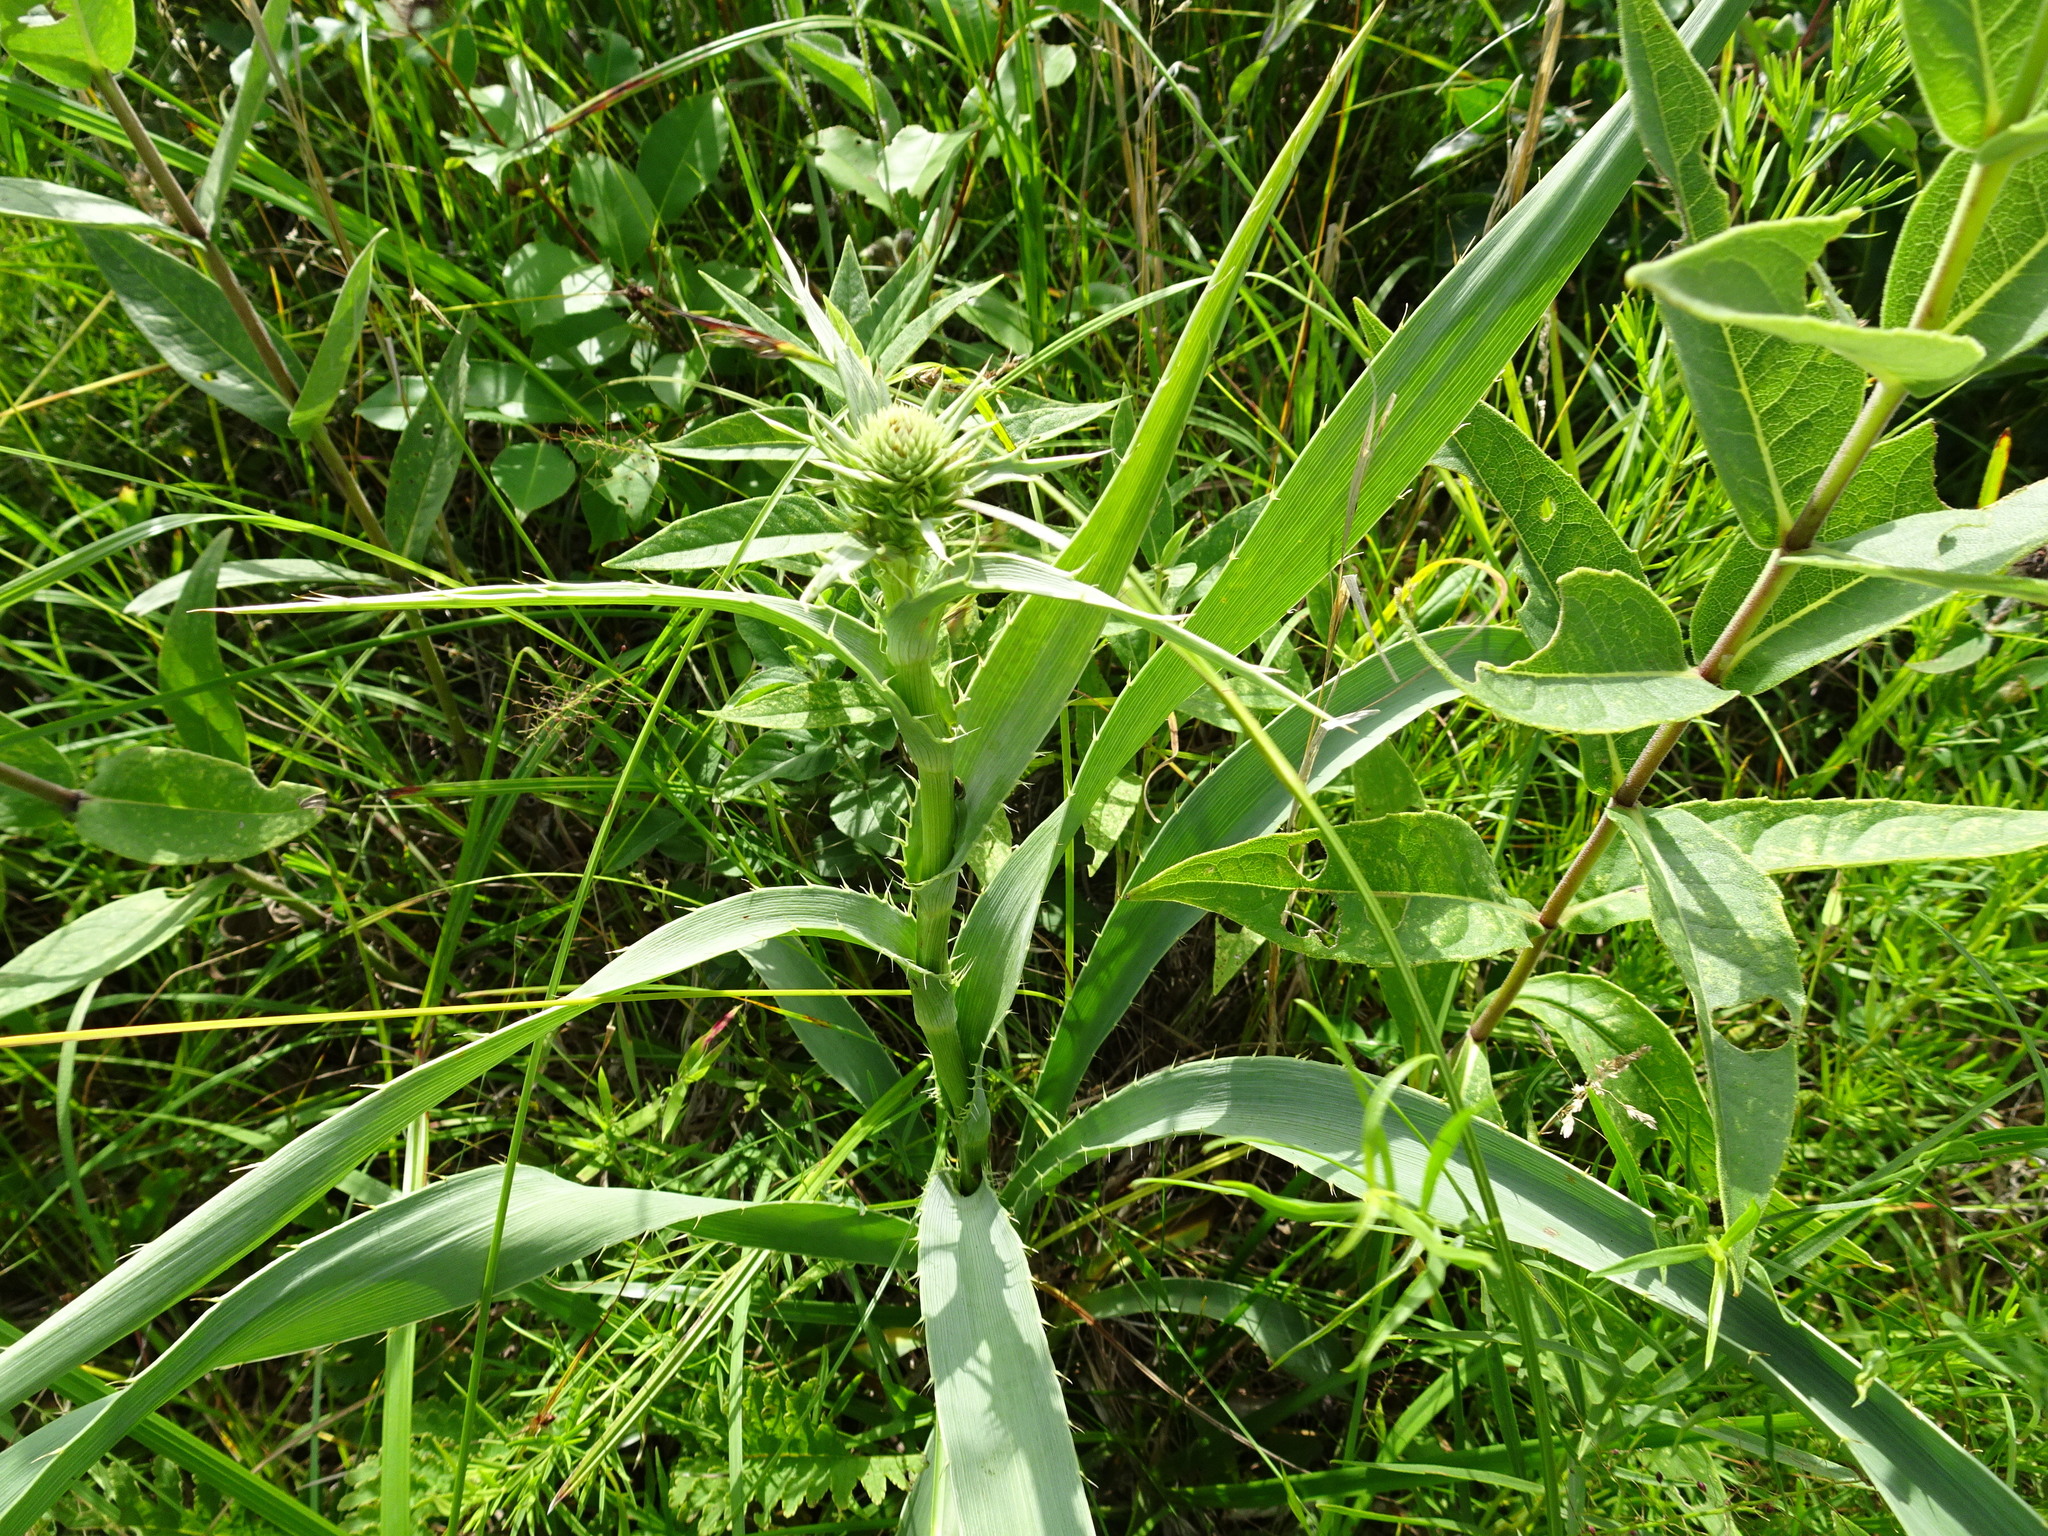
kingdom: Plantae
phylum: Tracheophyta
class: Magnoliopsida
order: Apiales
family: Apiaceae
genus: Eryngium
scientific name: Eryngium yuccifolium
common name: Button eryngo
